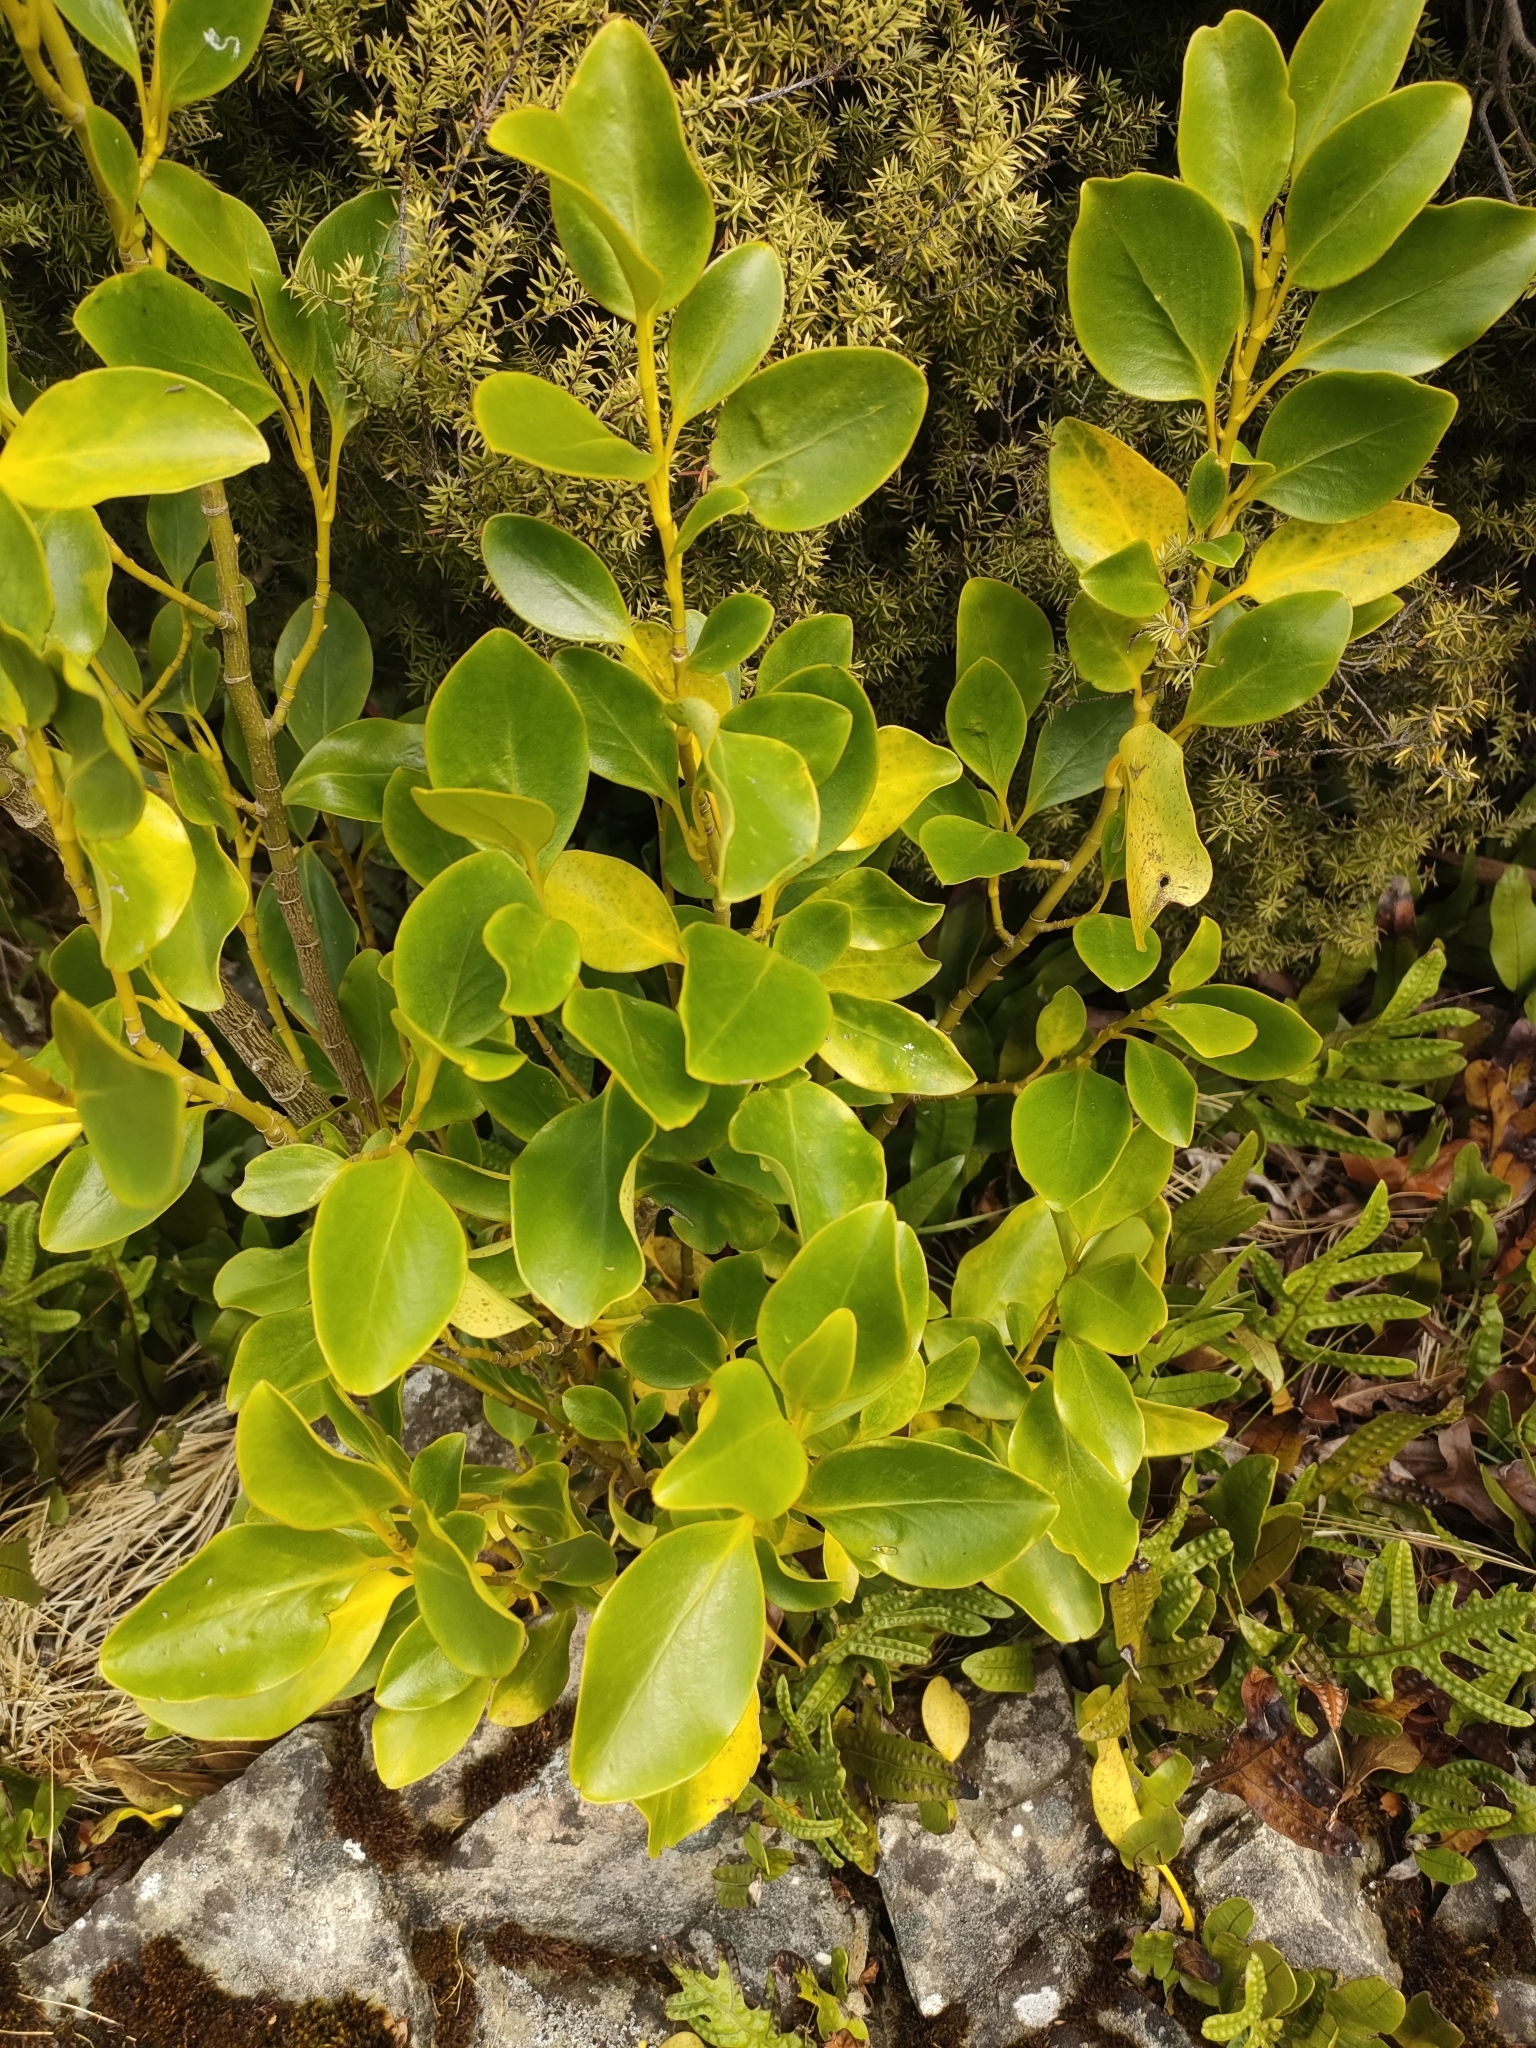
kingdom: Plantae
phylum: Tracheophyta
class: Magnoliopsida
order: Apiales
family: Griseliniaceae
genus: Griselinia
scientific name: Griselinia littoralis
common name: New zealand broadleaf
